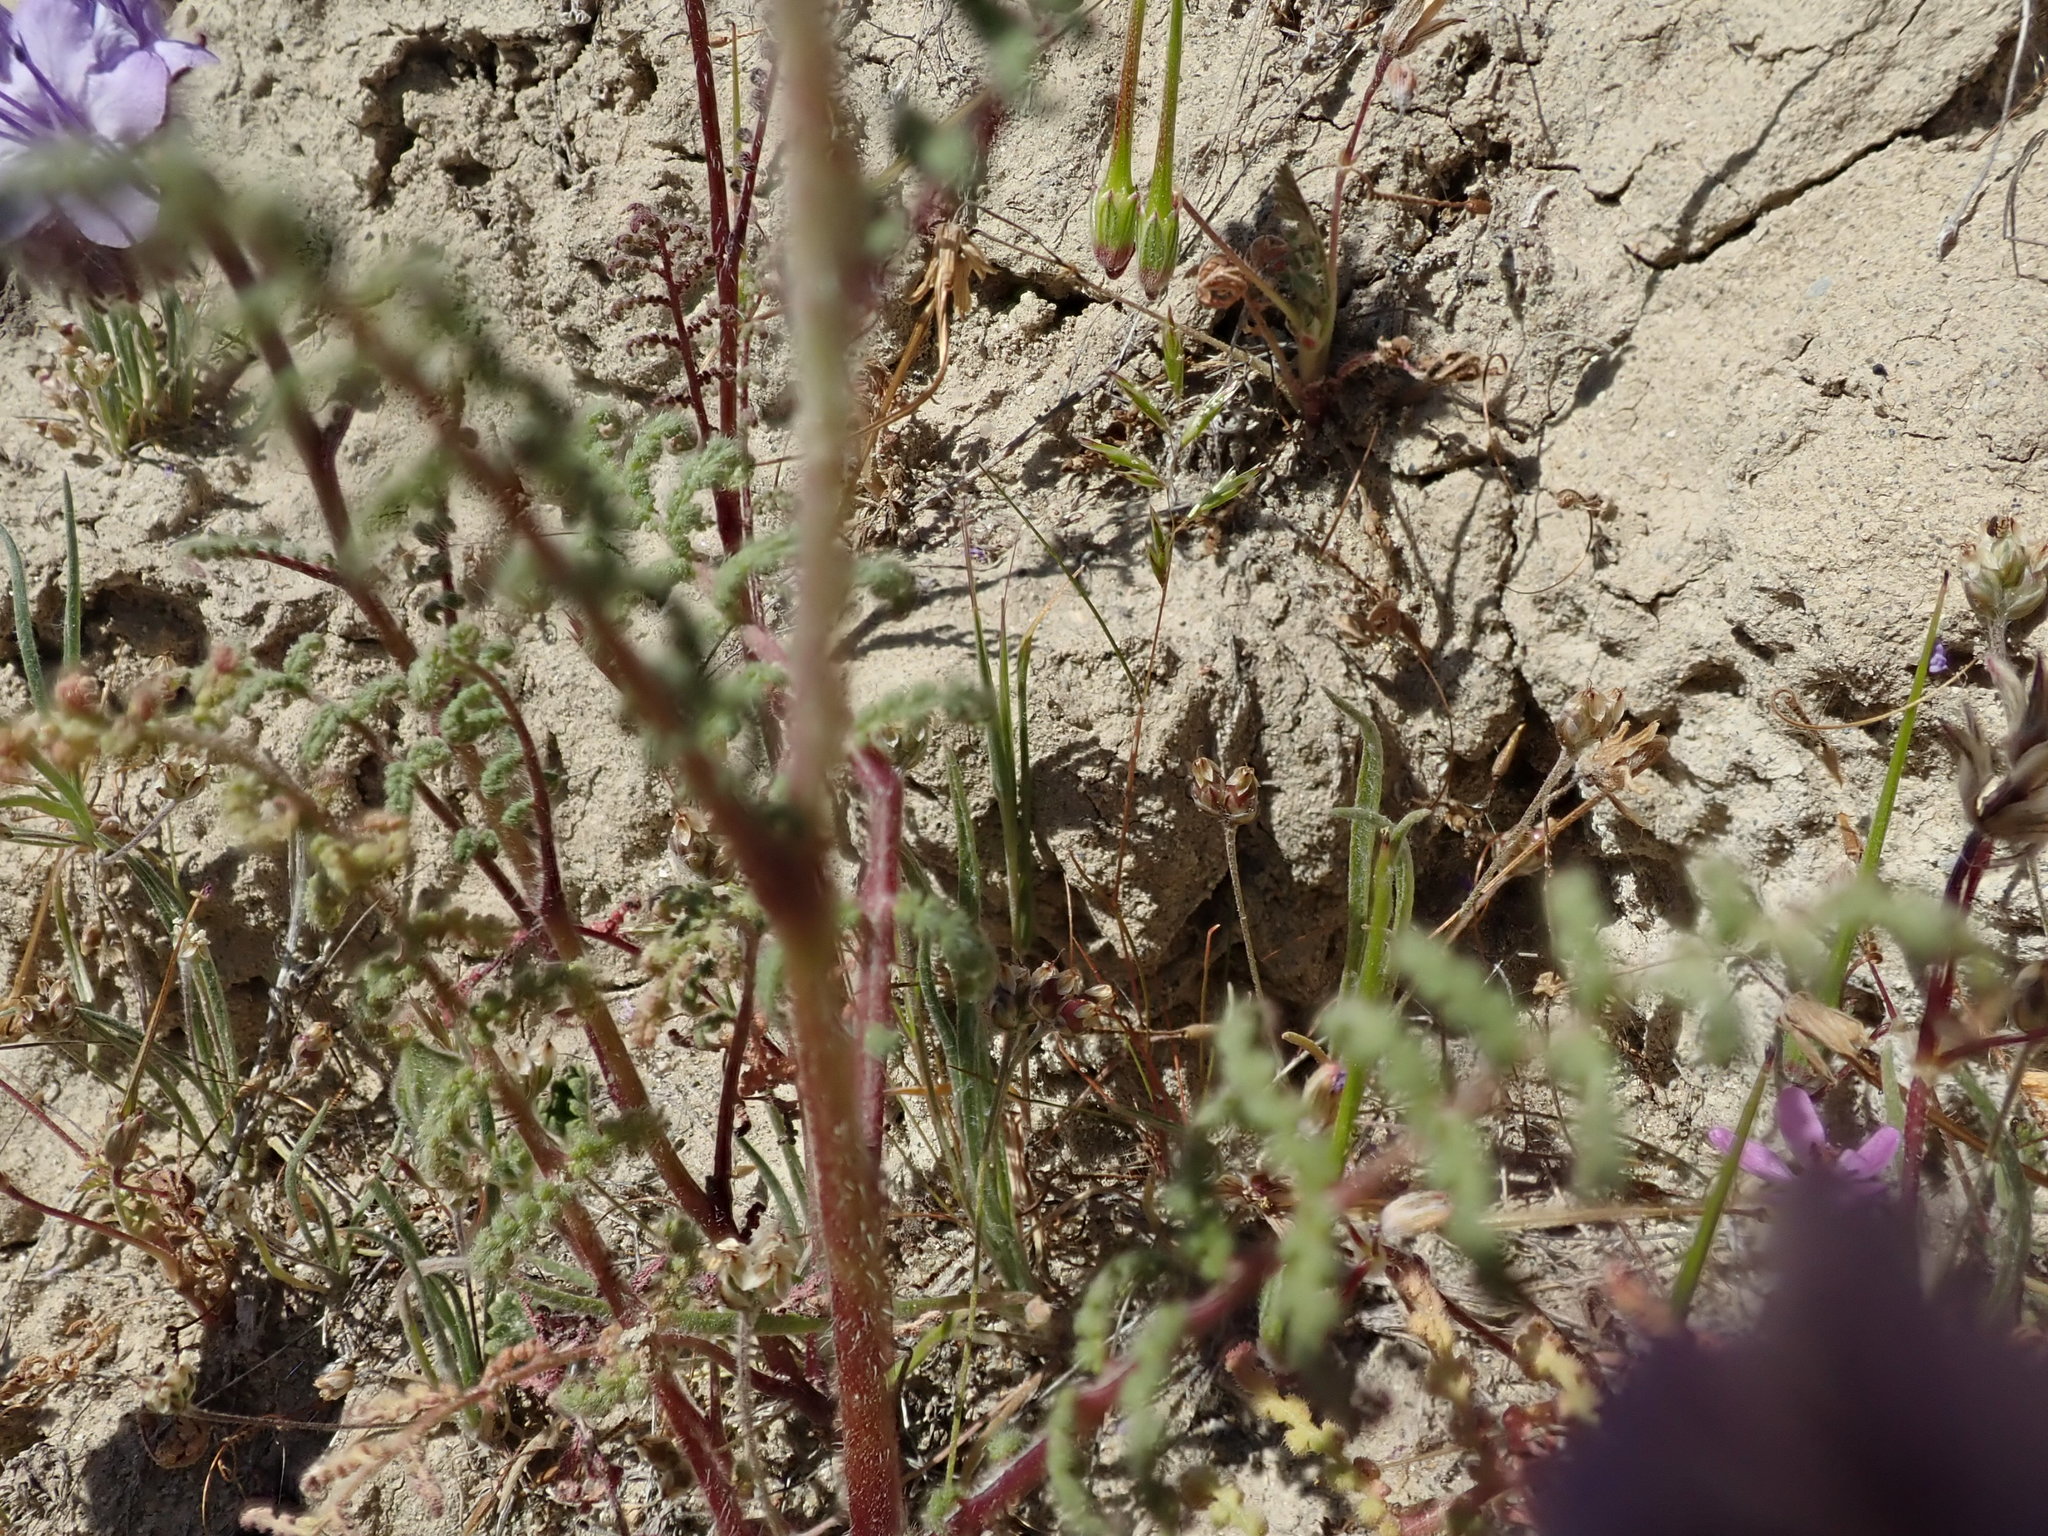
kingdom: Plantae
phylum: Tracheophyta
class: Magnoliopsida
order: Boraginales
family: Hydrophyllaceae
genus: Phacelia
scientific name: Phacelia tanacetifolia
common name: Phacelia
